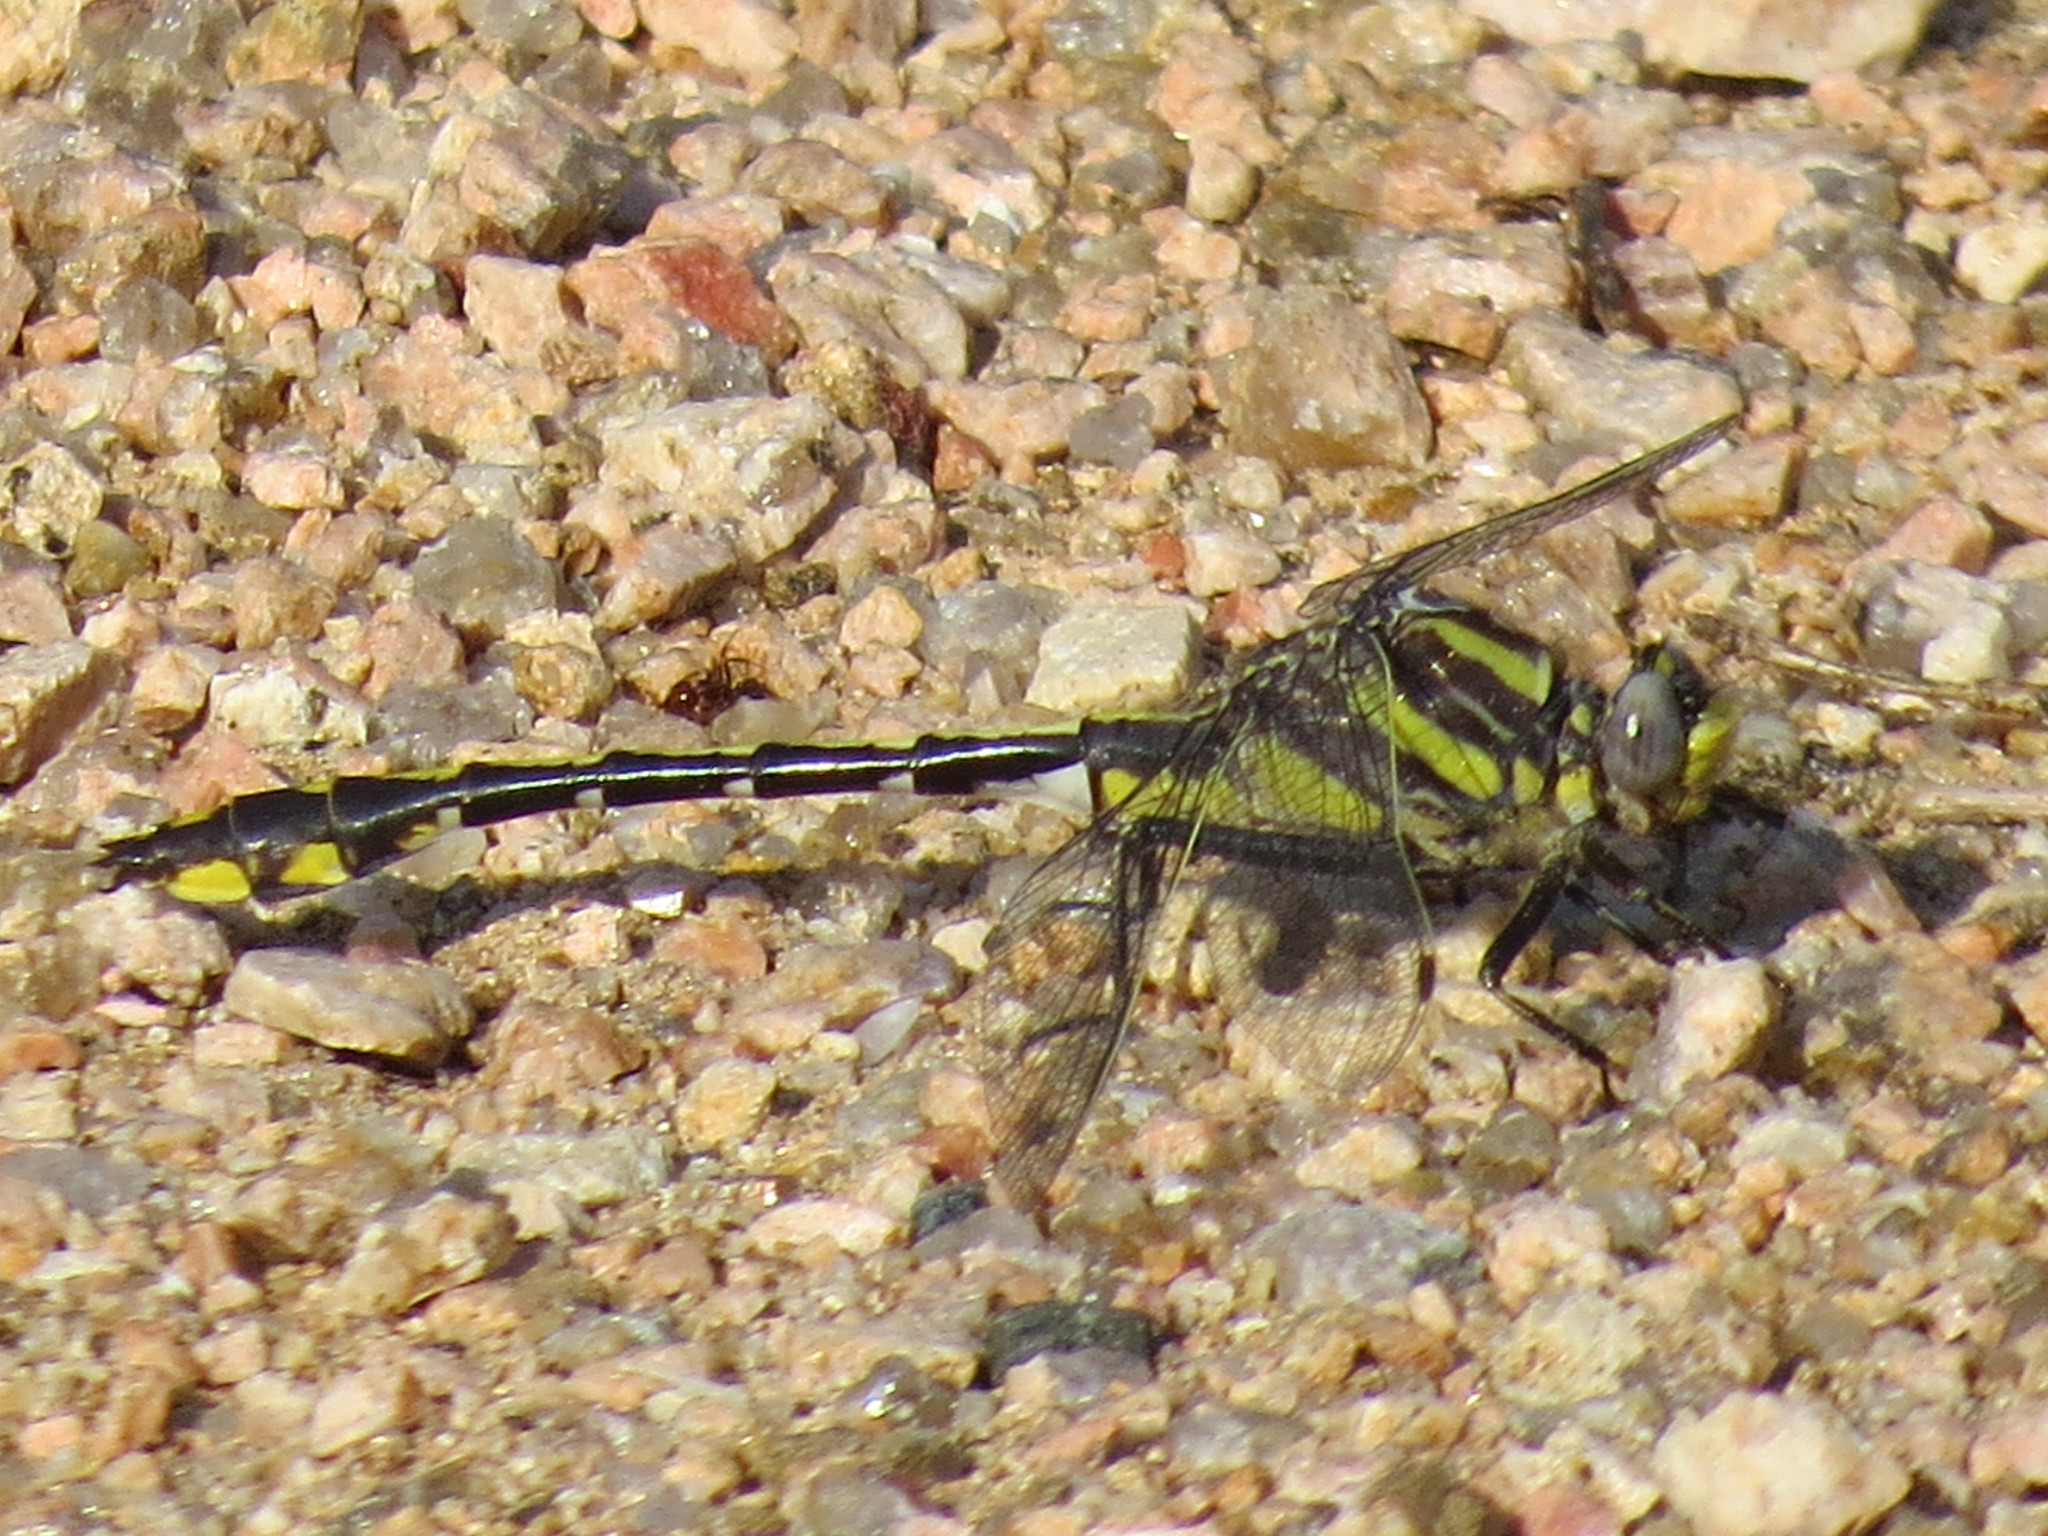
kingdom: Animalia
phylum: Arthropoda
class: Insecta
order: Odonata
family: Gomphidae
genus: Gomphurus
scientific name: Gomphurus externus
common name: Plains clubtail
